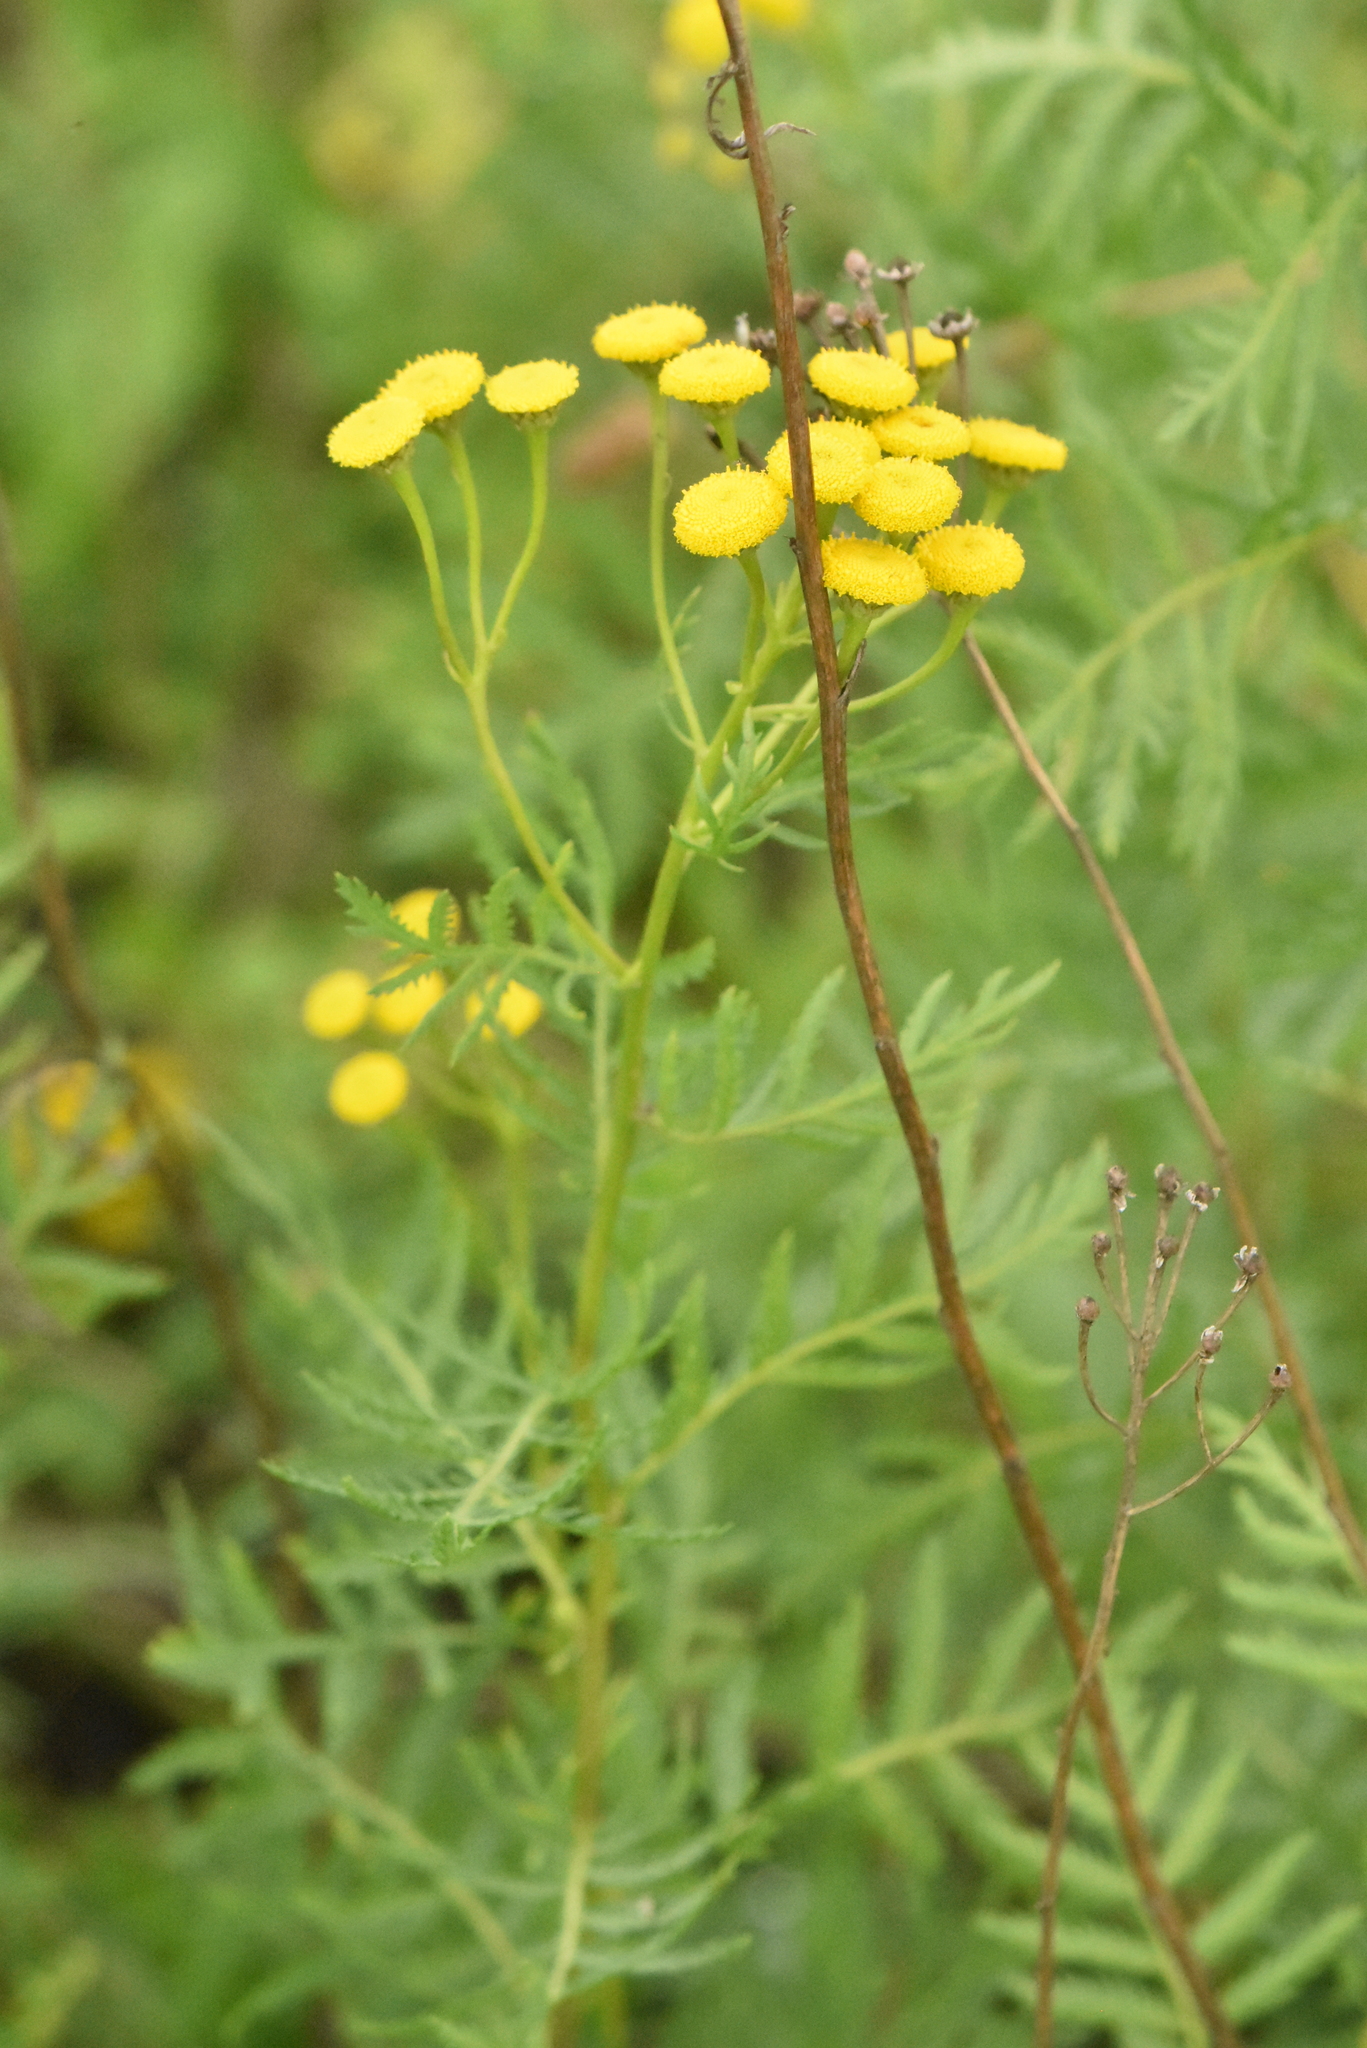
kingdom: Plantae
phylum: Tracheophyta
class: Magnoliopsida
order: Asterales
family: Asteraceae
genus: Tanacetum
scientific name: Tanacetum vulgare
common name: Common tansy
